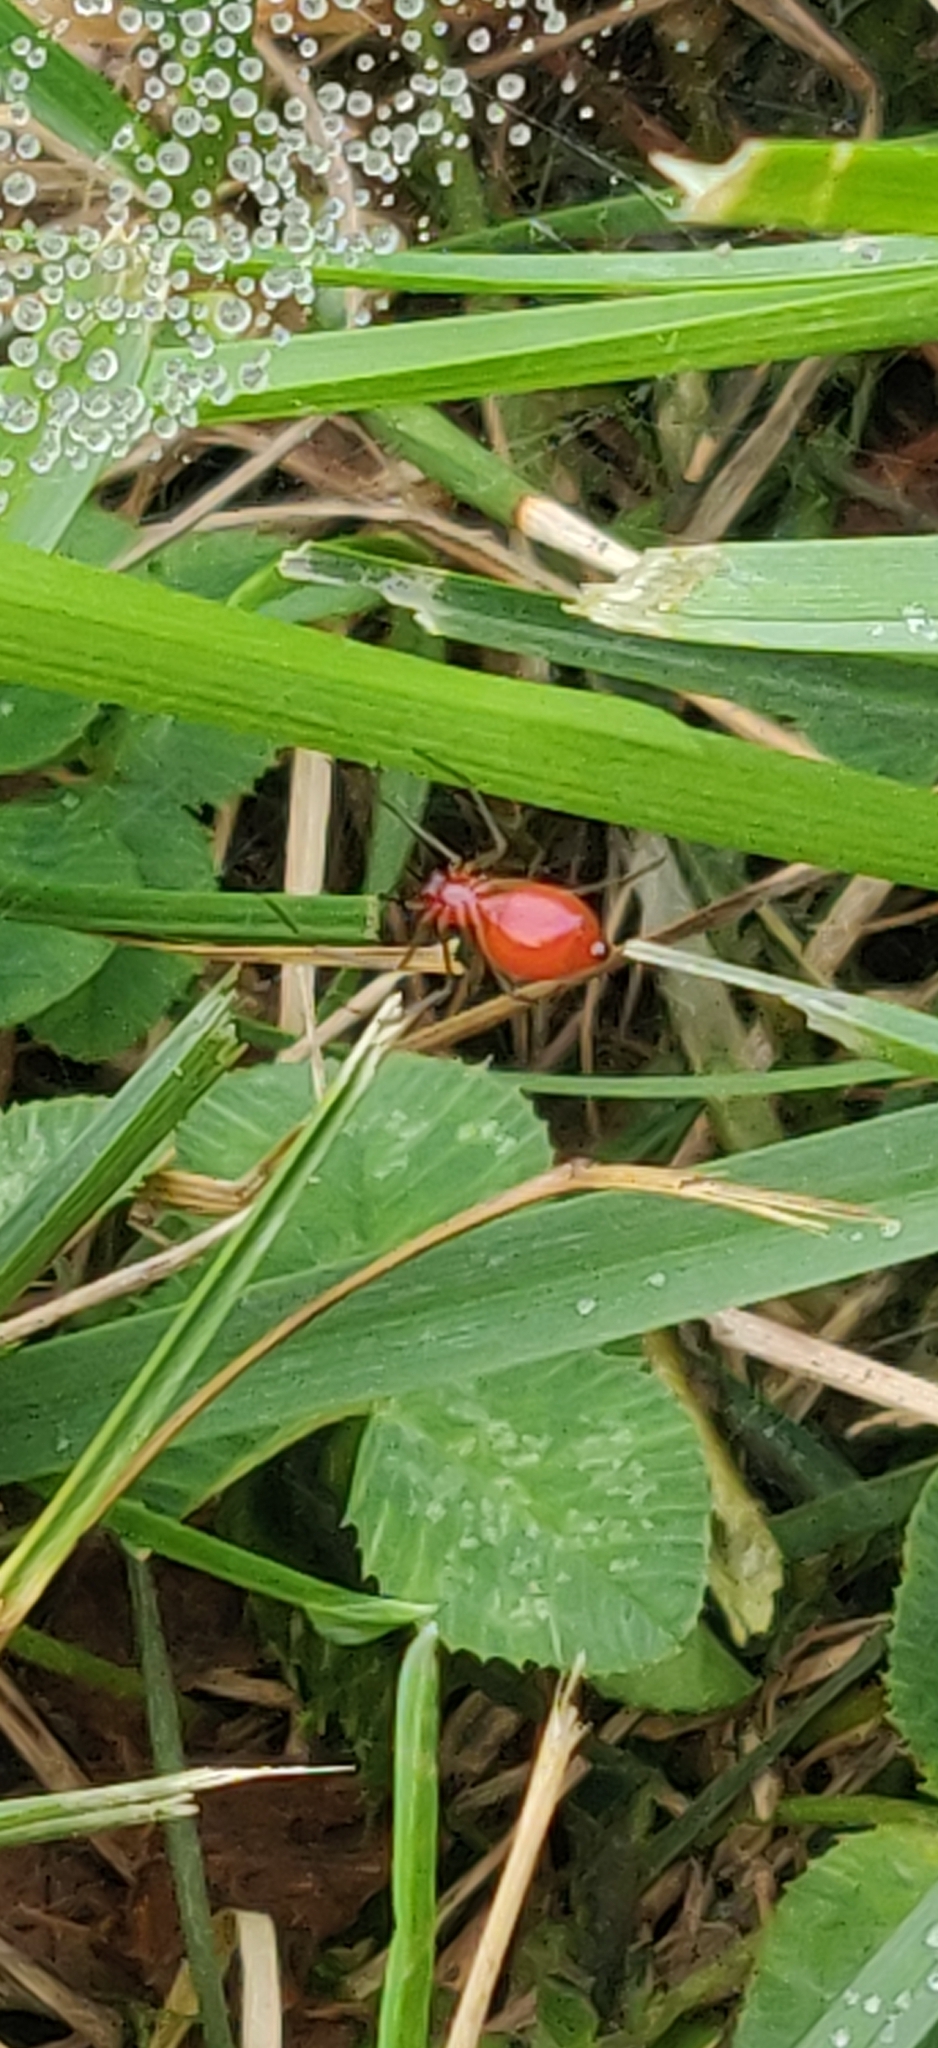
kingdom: Animalia
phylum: Arthropoda
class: Arachnida
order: Araneae
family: Linyphiidae
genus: Florinda
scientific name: Florinda coccinea
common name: Black-tailed red sheetweaver
